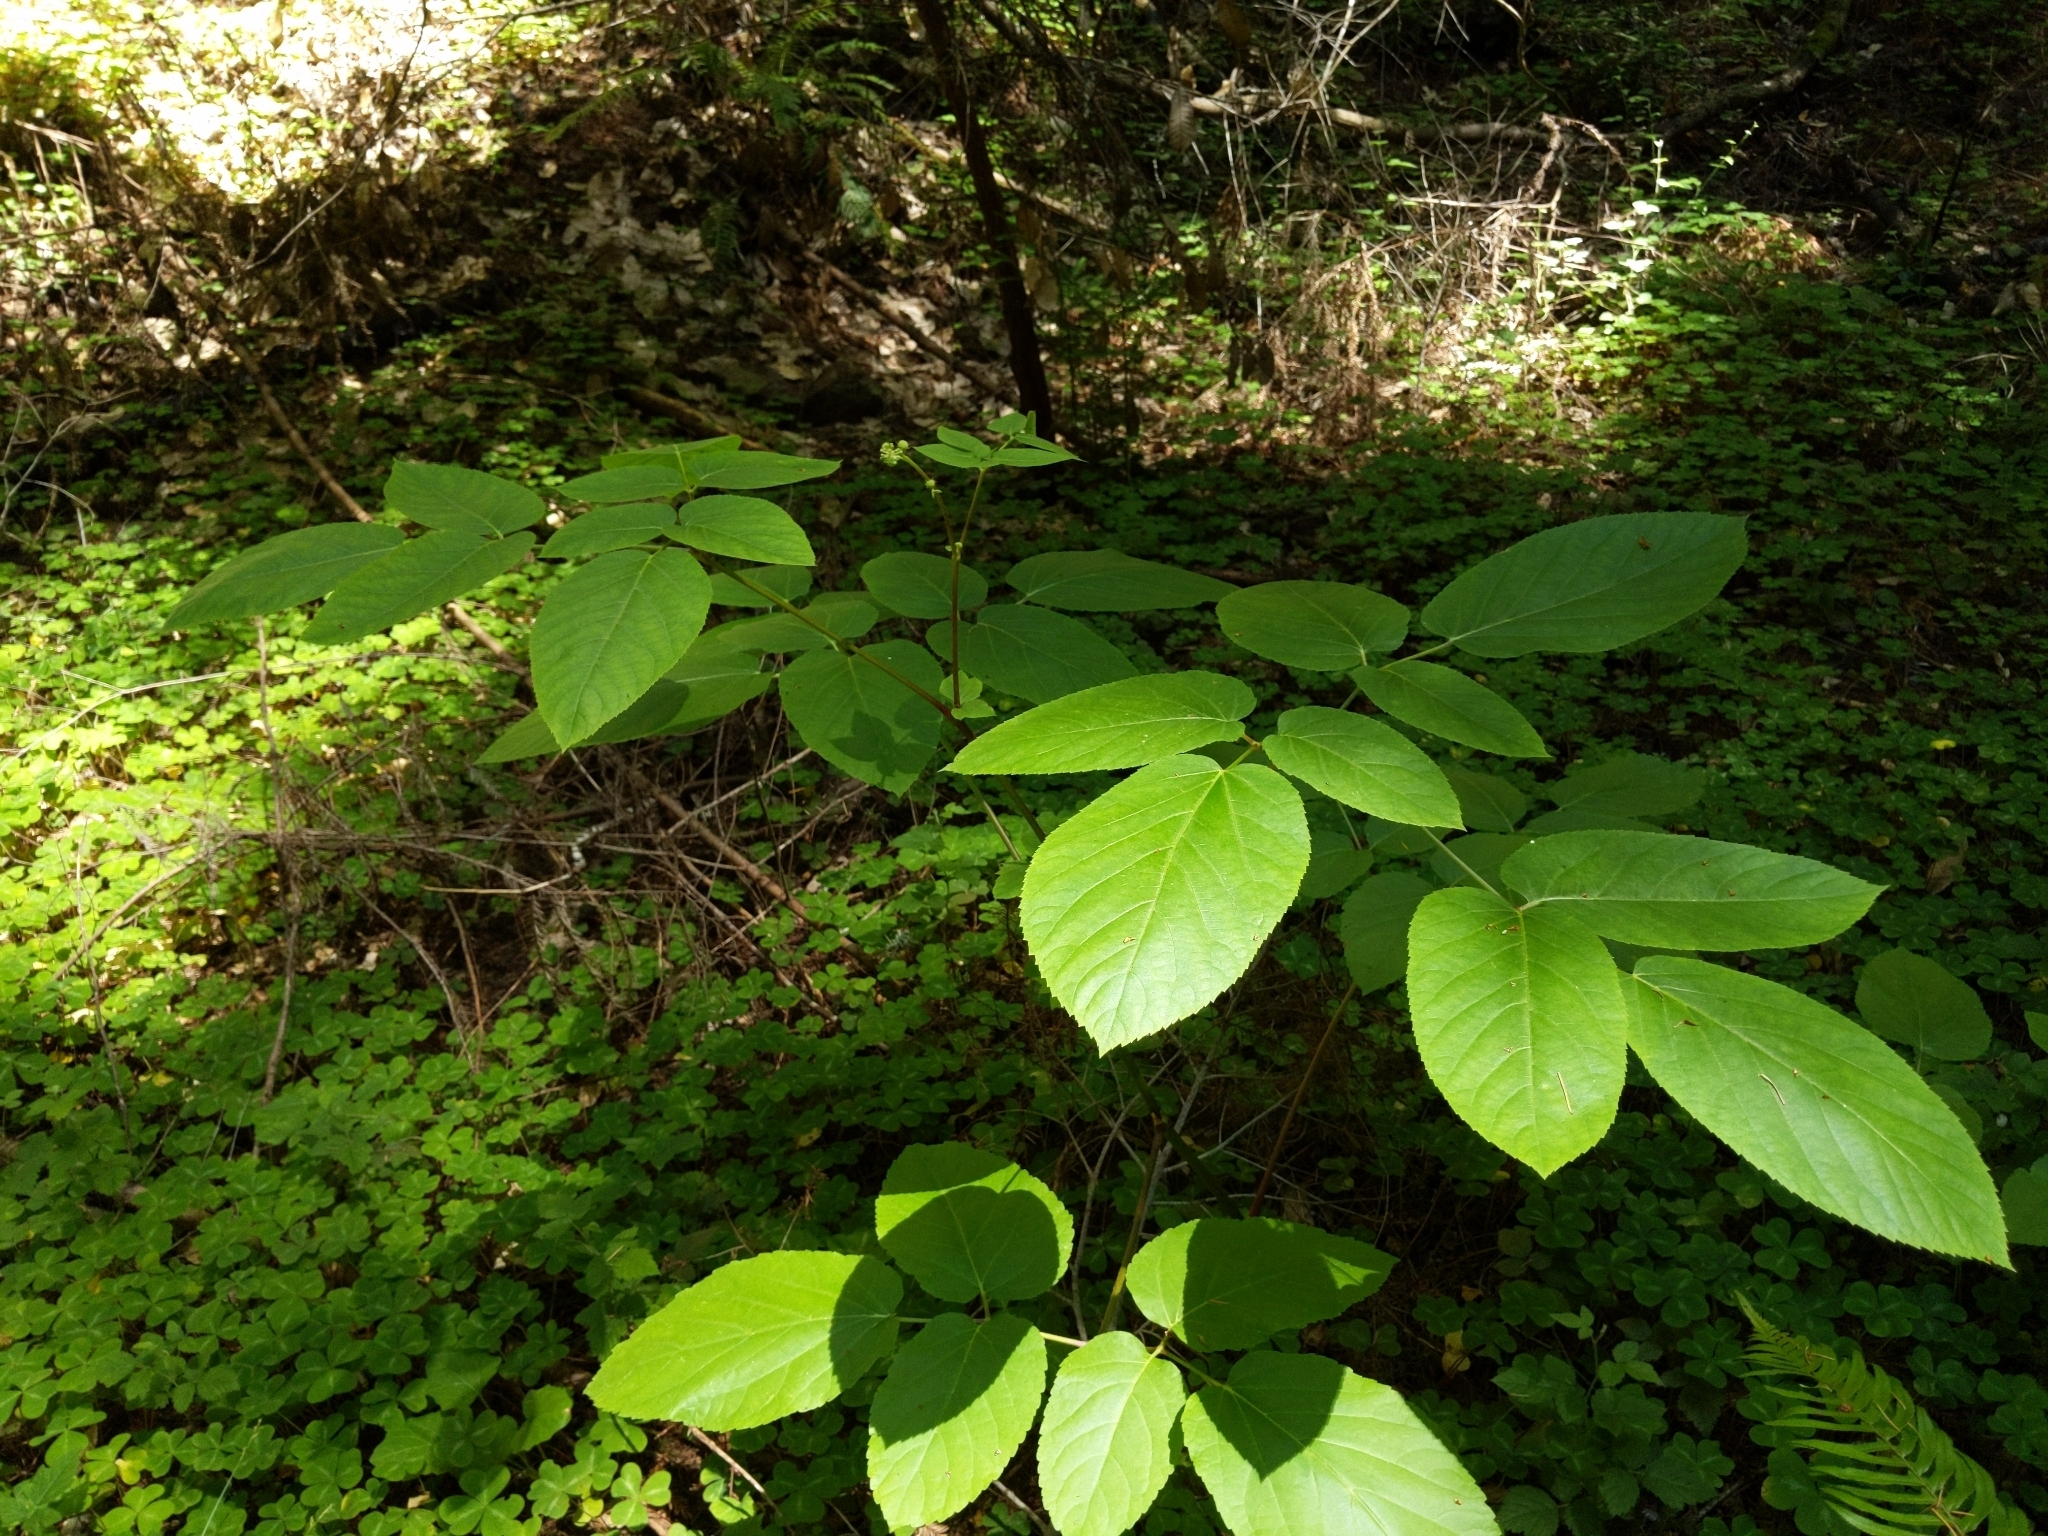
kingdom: Plantae
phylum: Tracheophyta
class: Magnoliopsida
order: Apiales
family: Araliaceae
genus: Aralia
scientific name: Aralia californica
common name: California-ginseng
